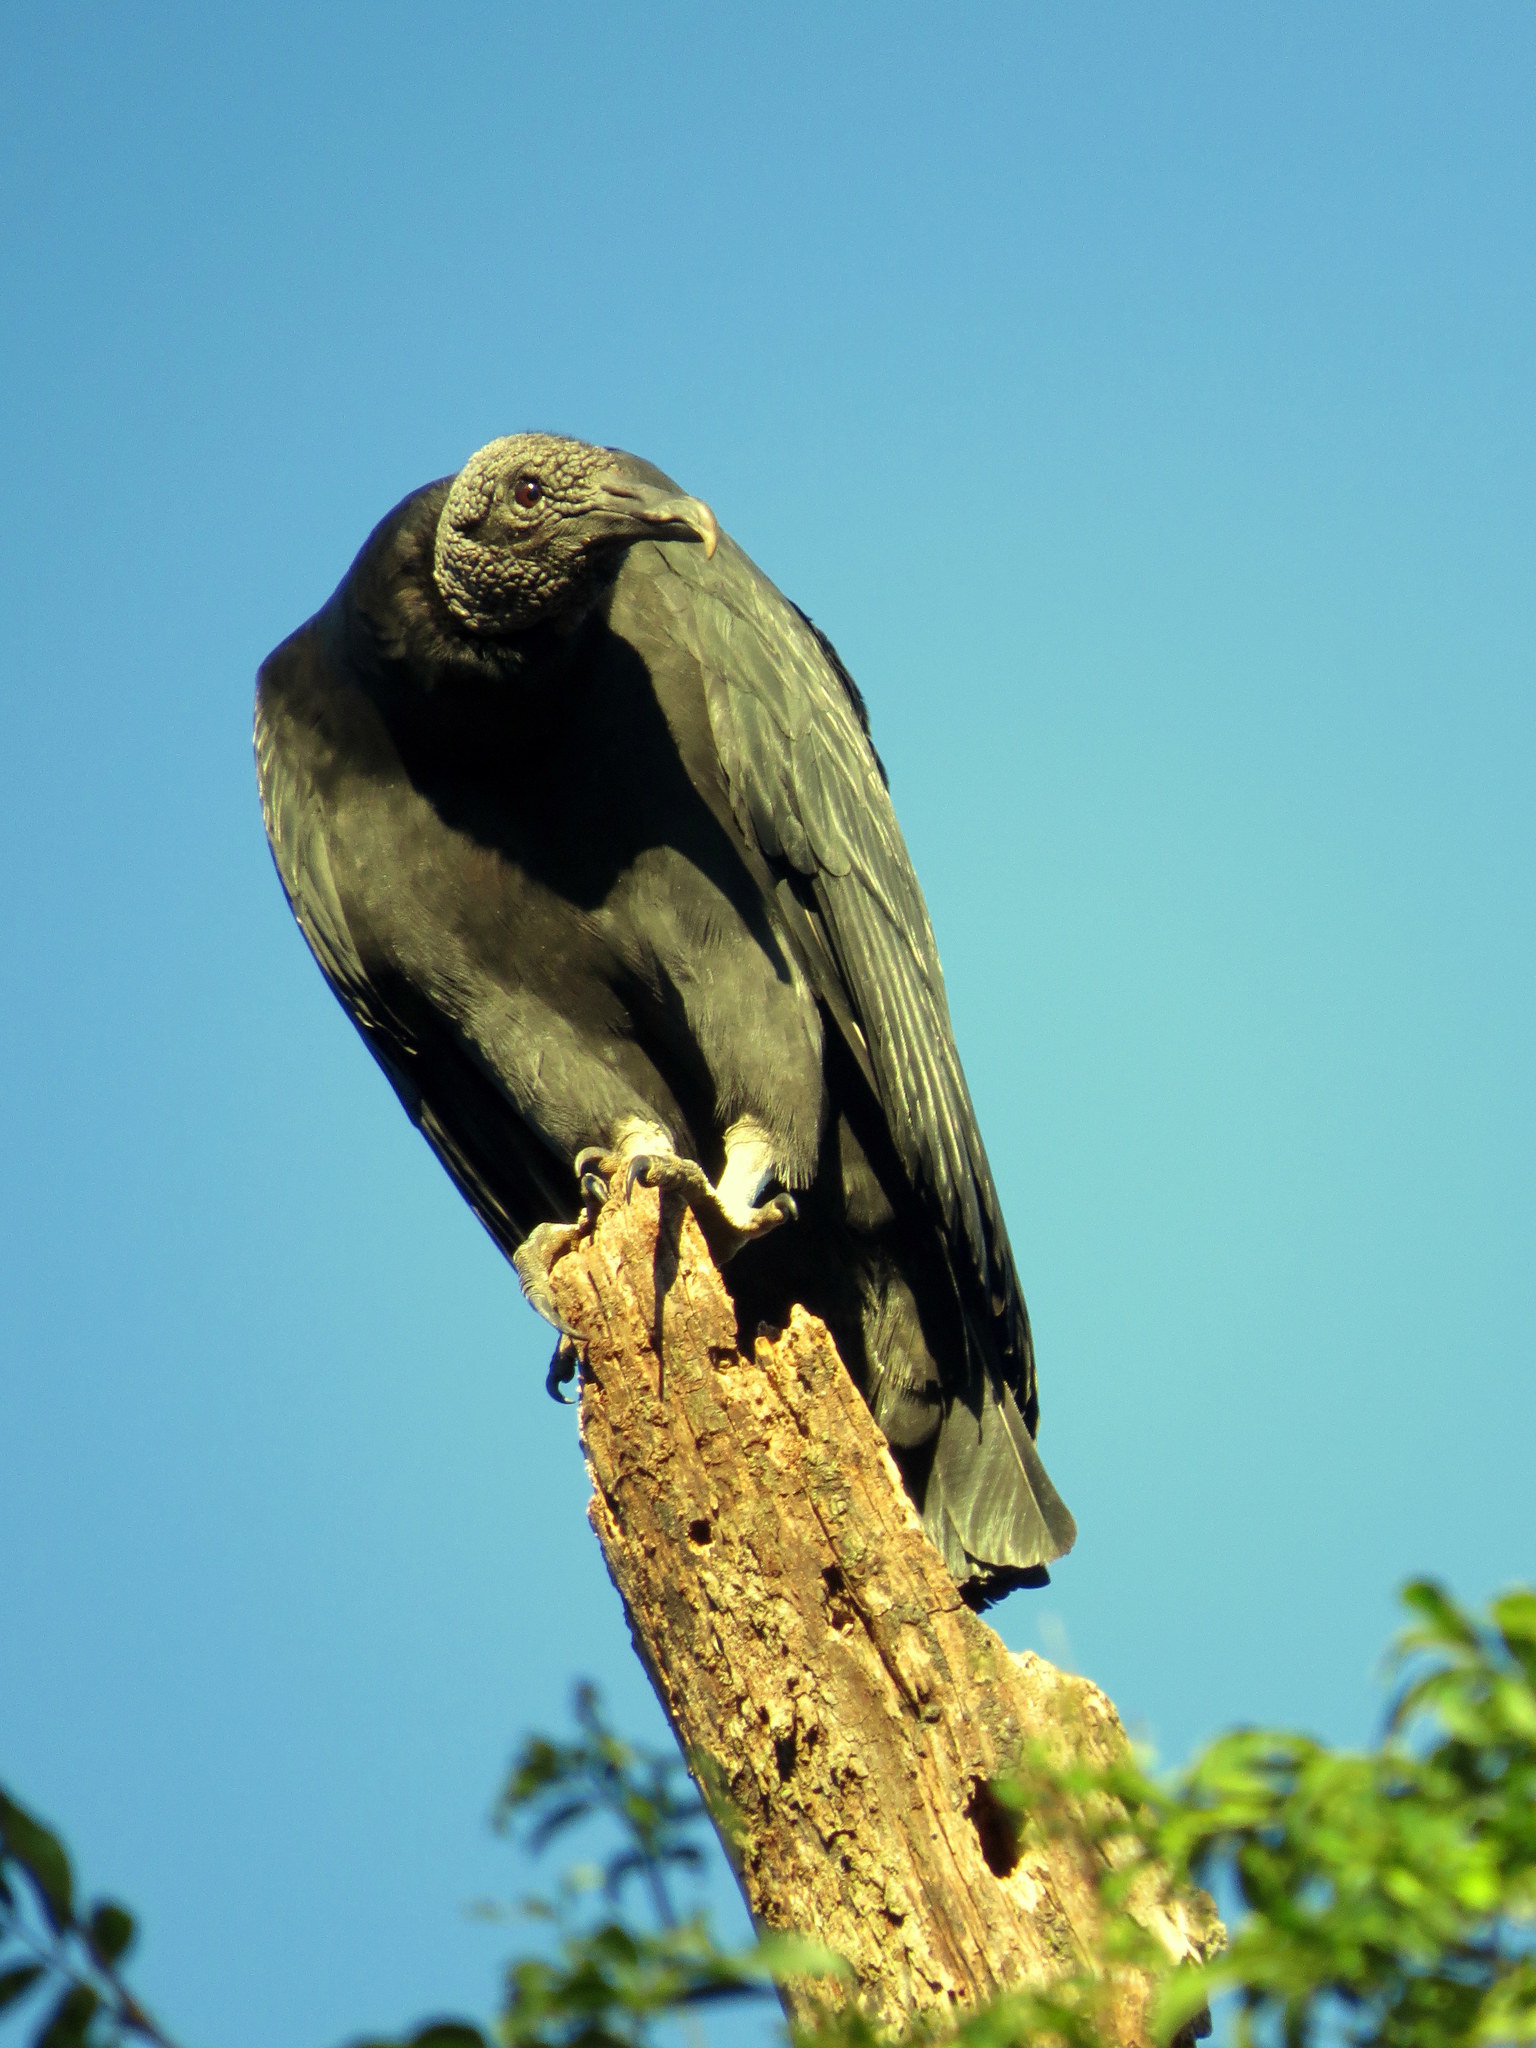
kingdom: Animalia
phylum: Chordata
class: Aves
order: Accipitriformes
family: Cathartidae
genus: Coragyps
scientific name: Coragyps atratus
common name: Black vulture
